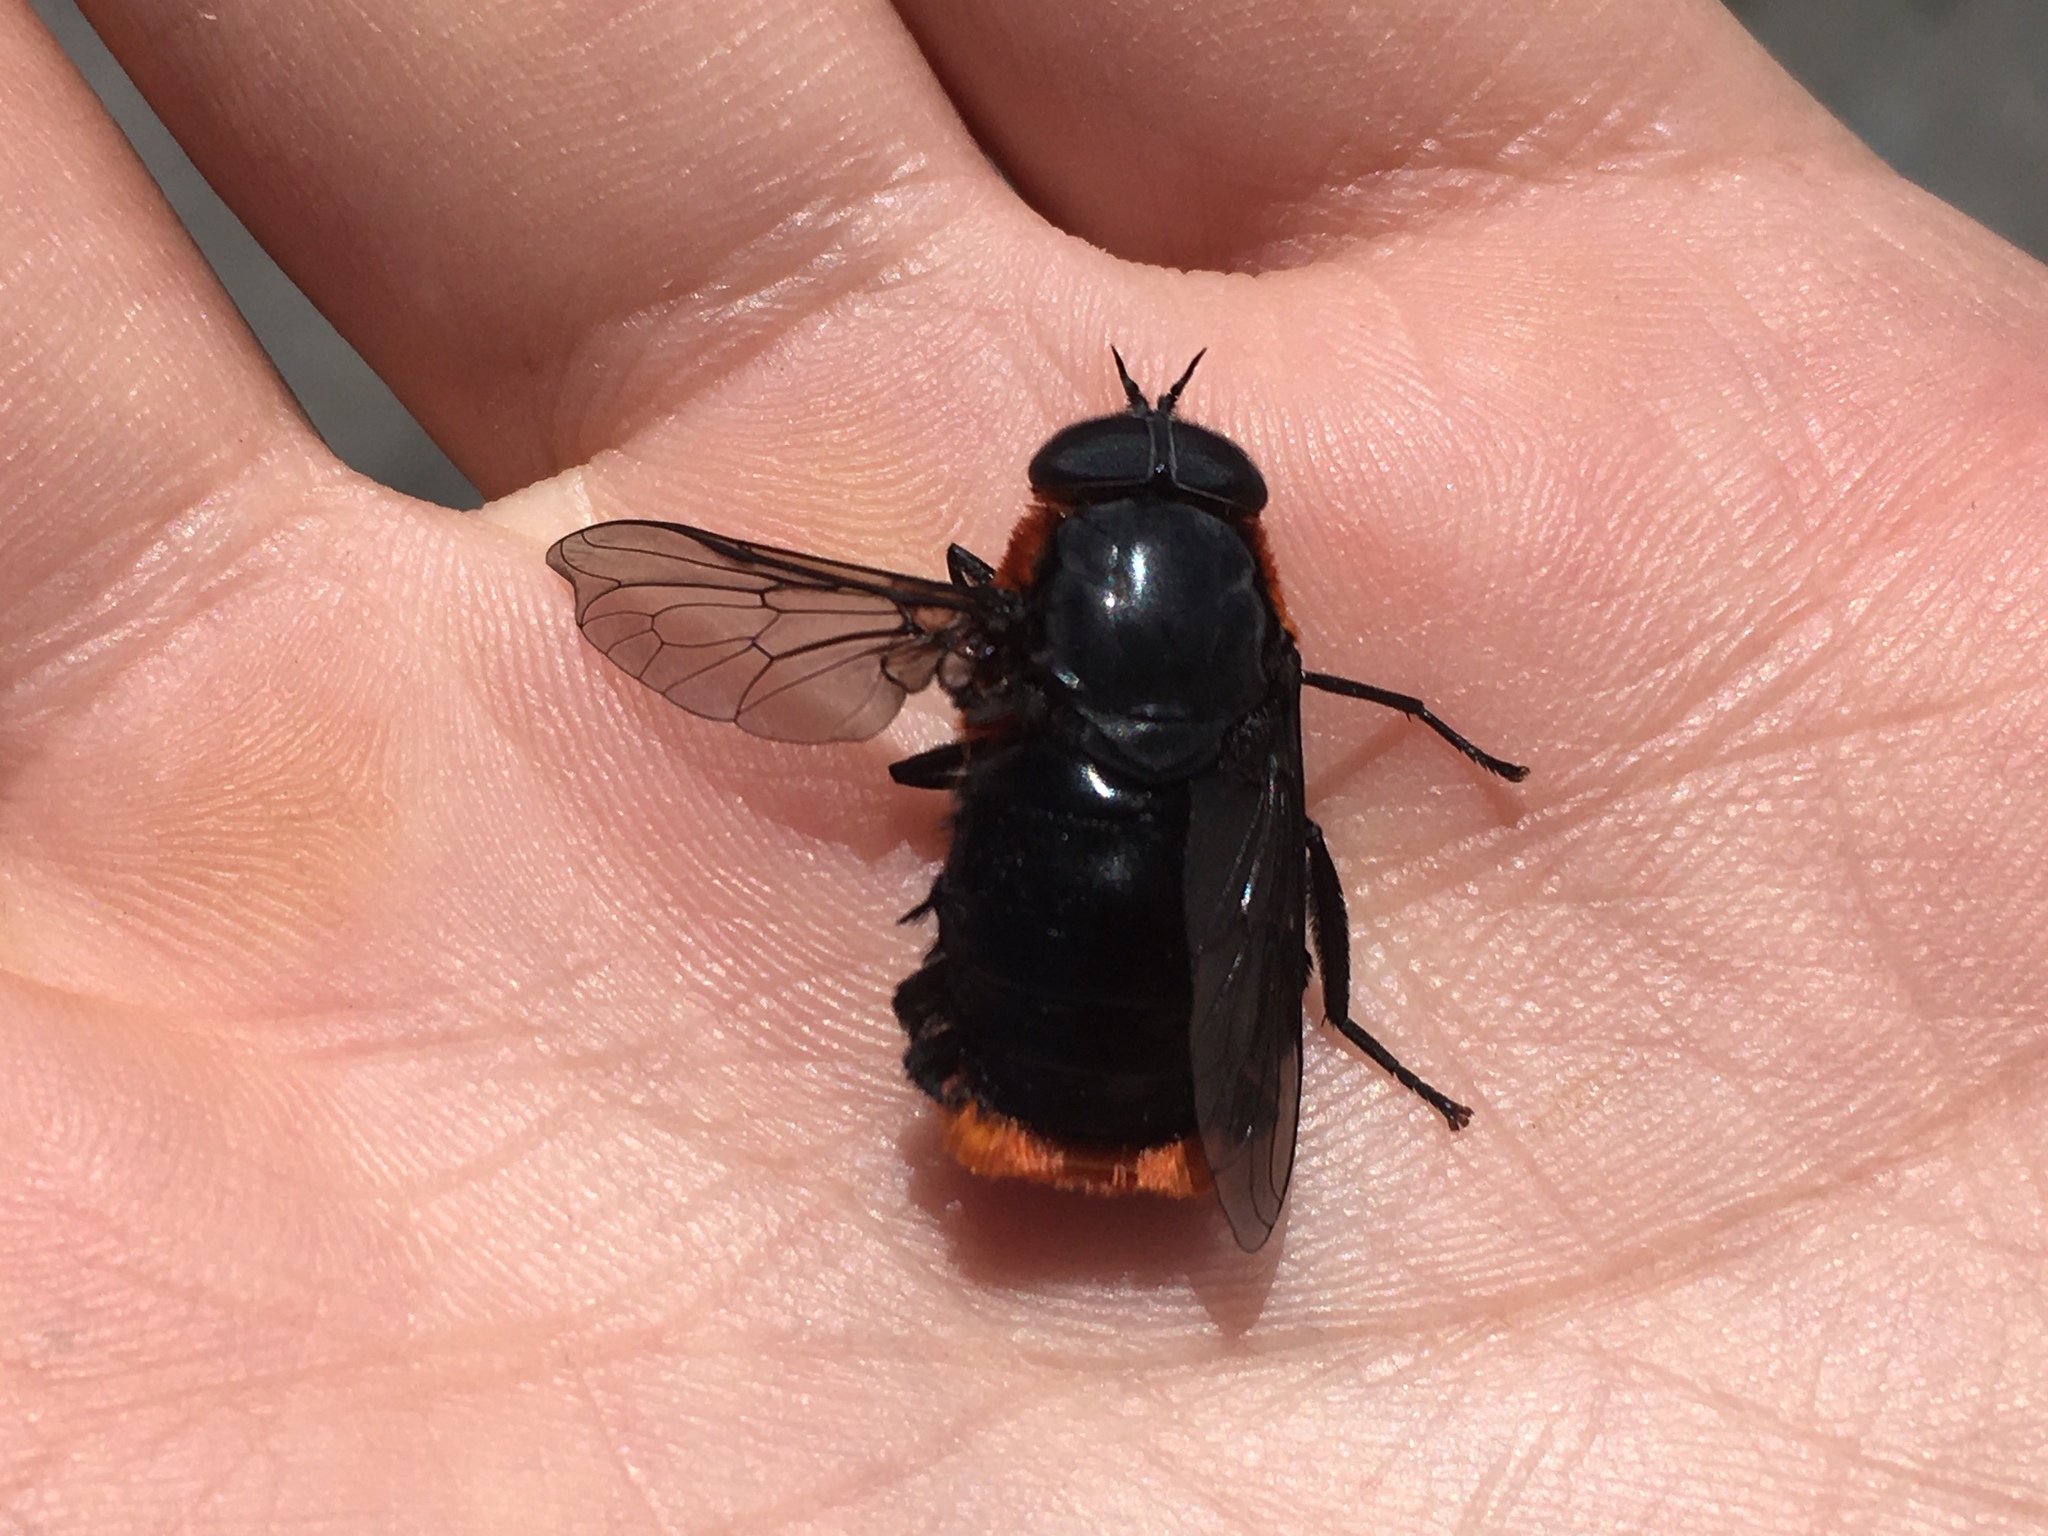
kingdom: Animalia
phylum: Arthropoda
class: Insecta
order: Diptera
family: Tabanidae
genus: Osca
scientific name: Osca lata
